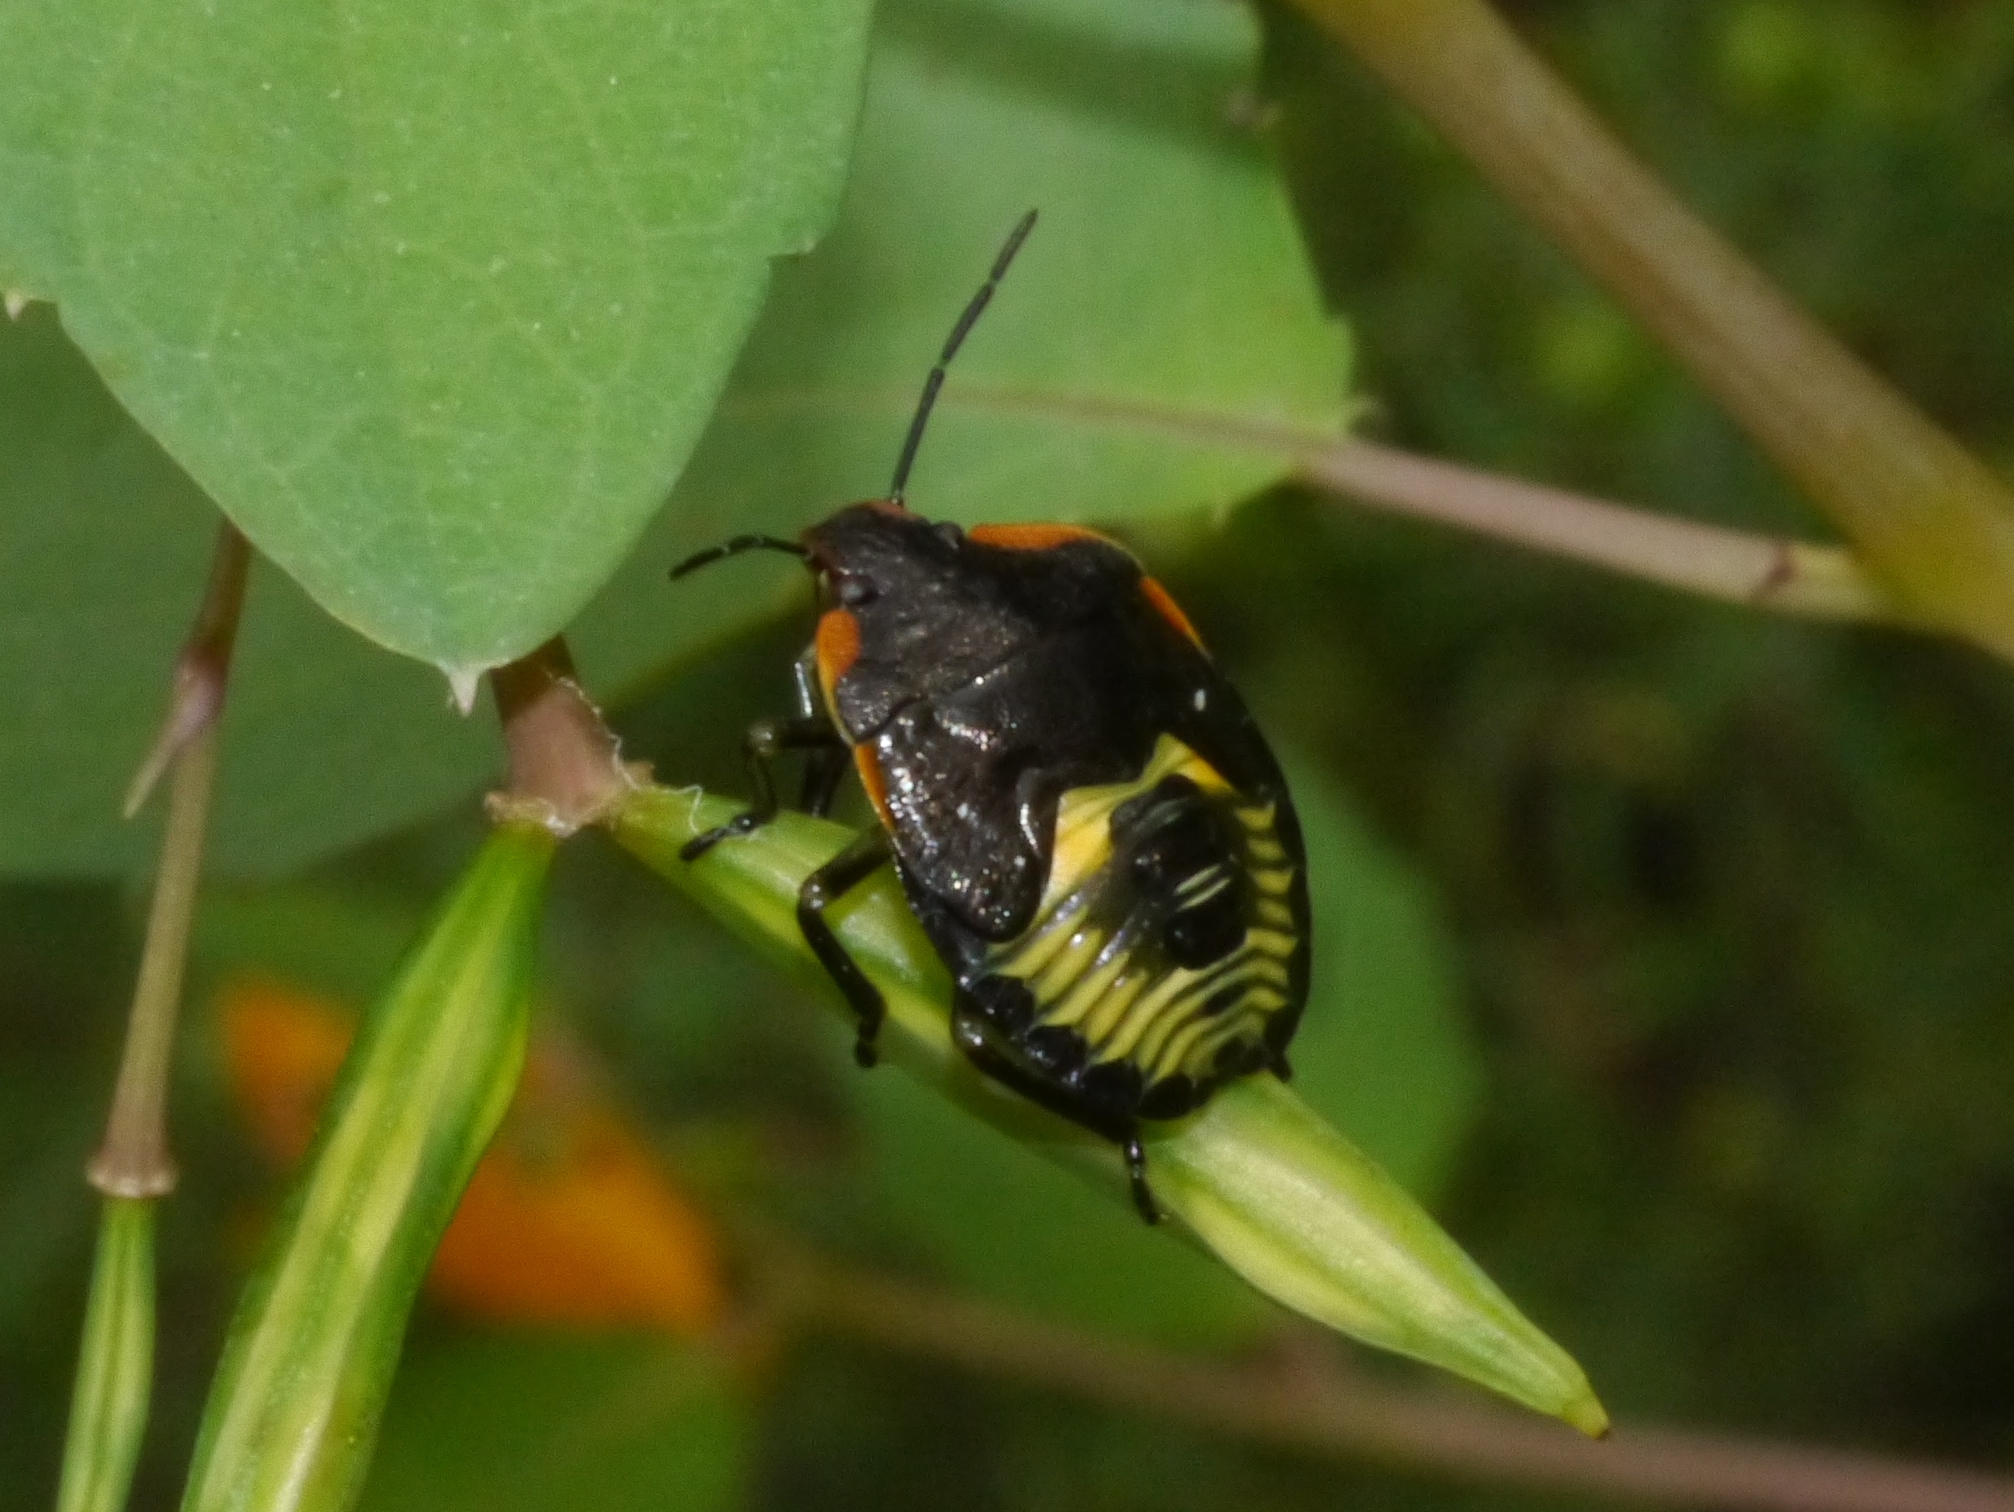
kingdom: Animalia
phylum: Arthropoda
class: Insecta
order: Hemiptera
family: Pentatomidae
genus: Chinavia
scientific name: Chinavia hilaris
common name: Green stink bug
